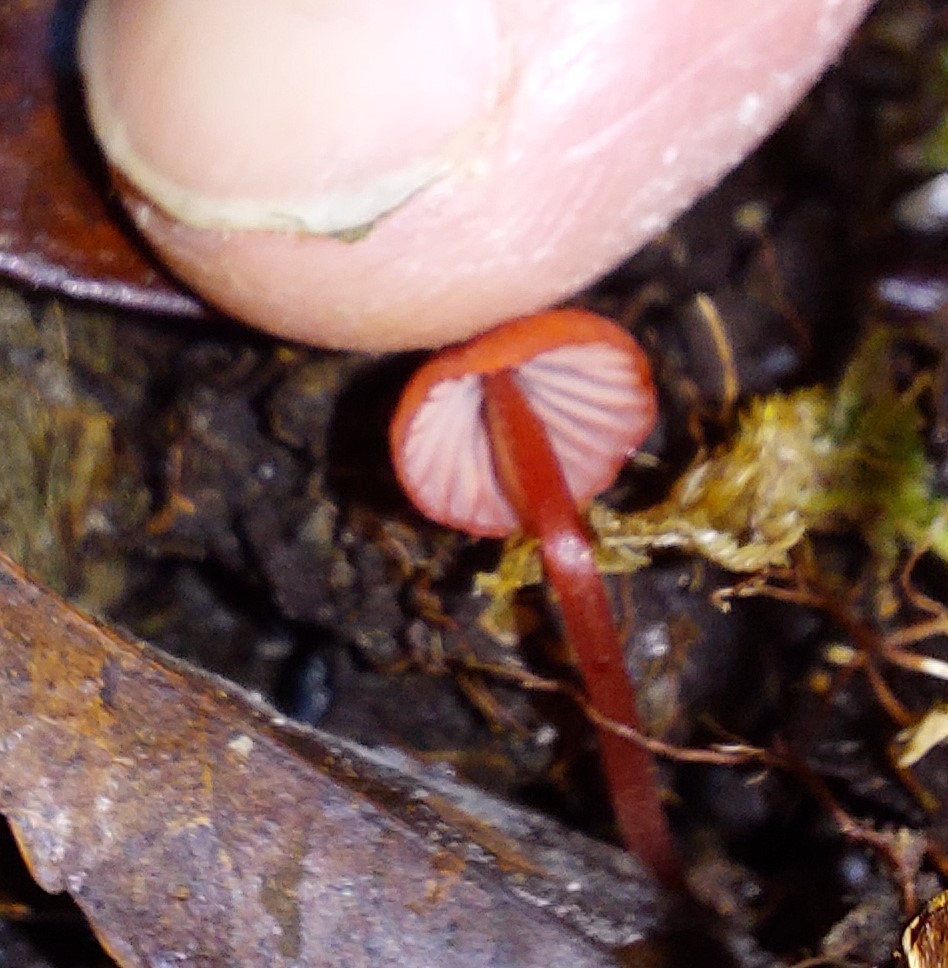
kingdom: Fungi
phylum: Basidiomycota
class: Agaricomycetes
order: Agaricales
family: Mycenaceae
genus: Mycena
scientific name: Mycena ura
